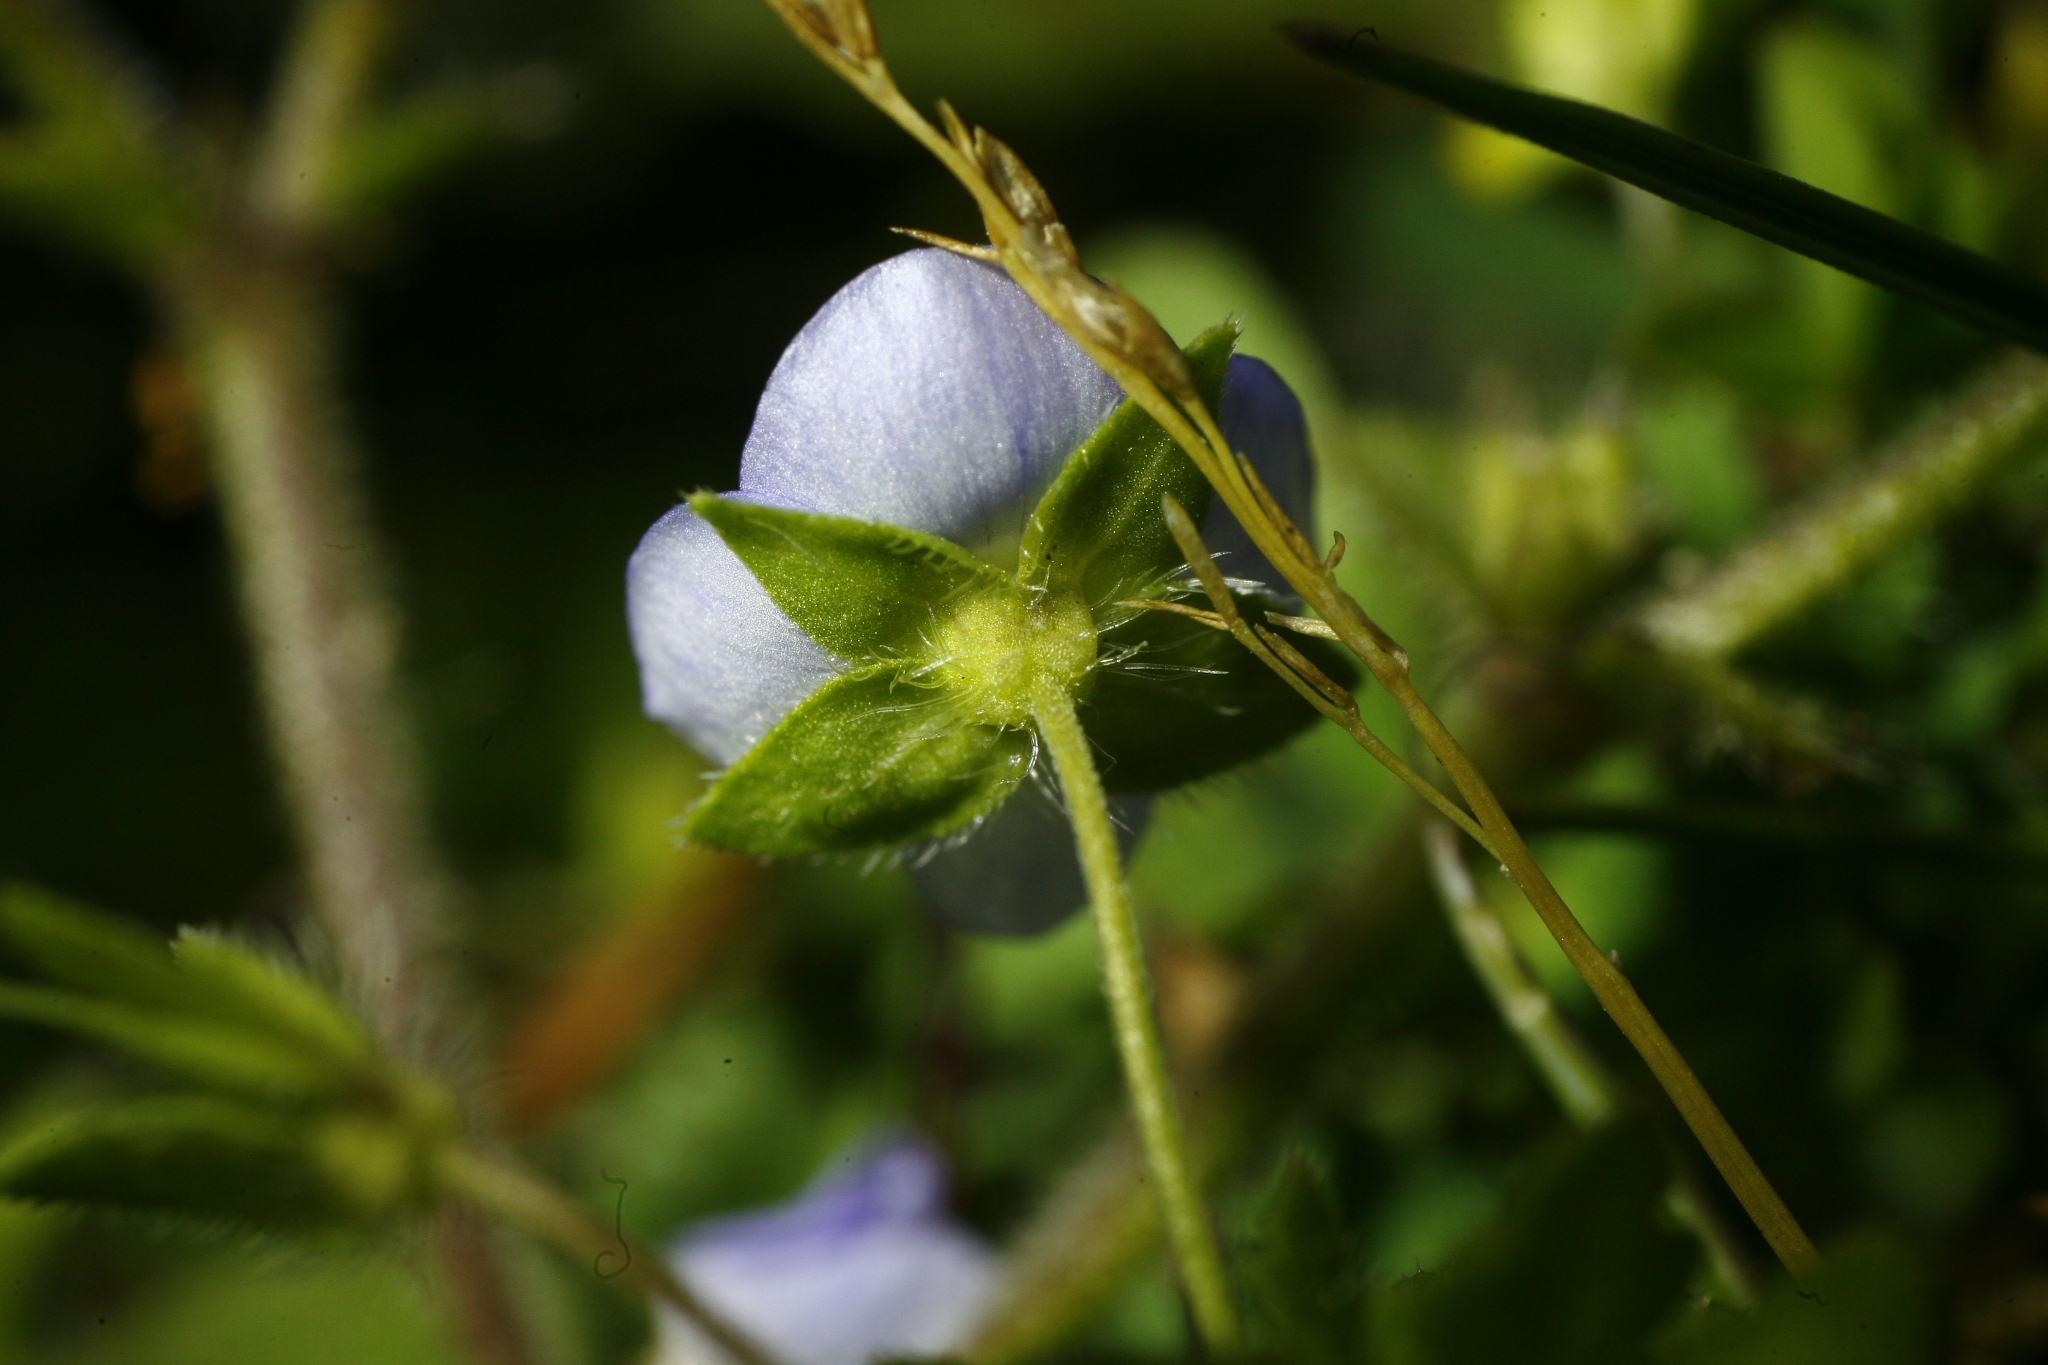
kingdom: Plantae
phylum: Tracheophyta
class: Magnoliopsida
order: Lamiales
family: Plantaginaceae
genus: Veronica
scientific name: Veronica persica
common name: Common field-speedwell
